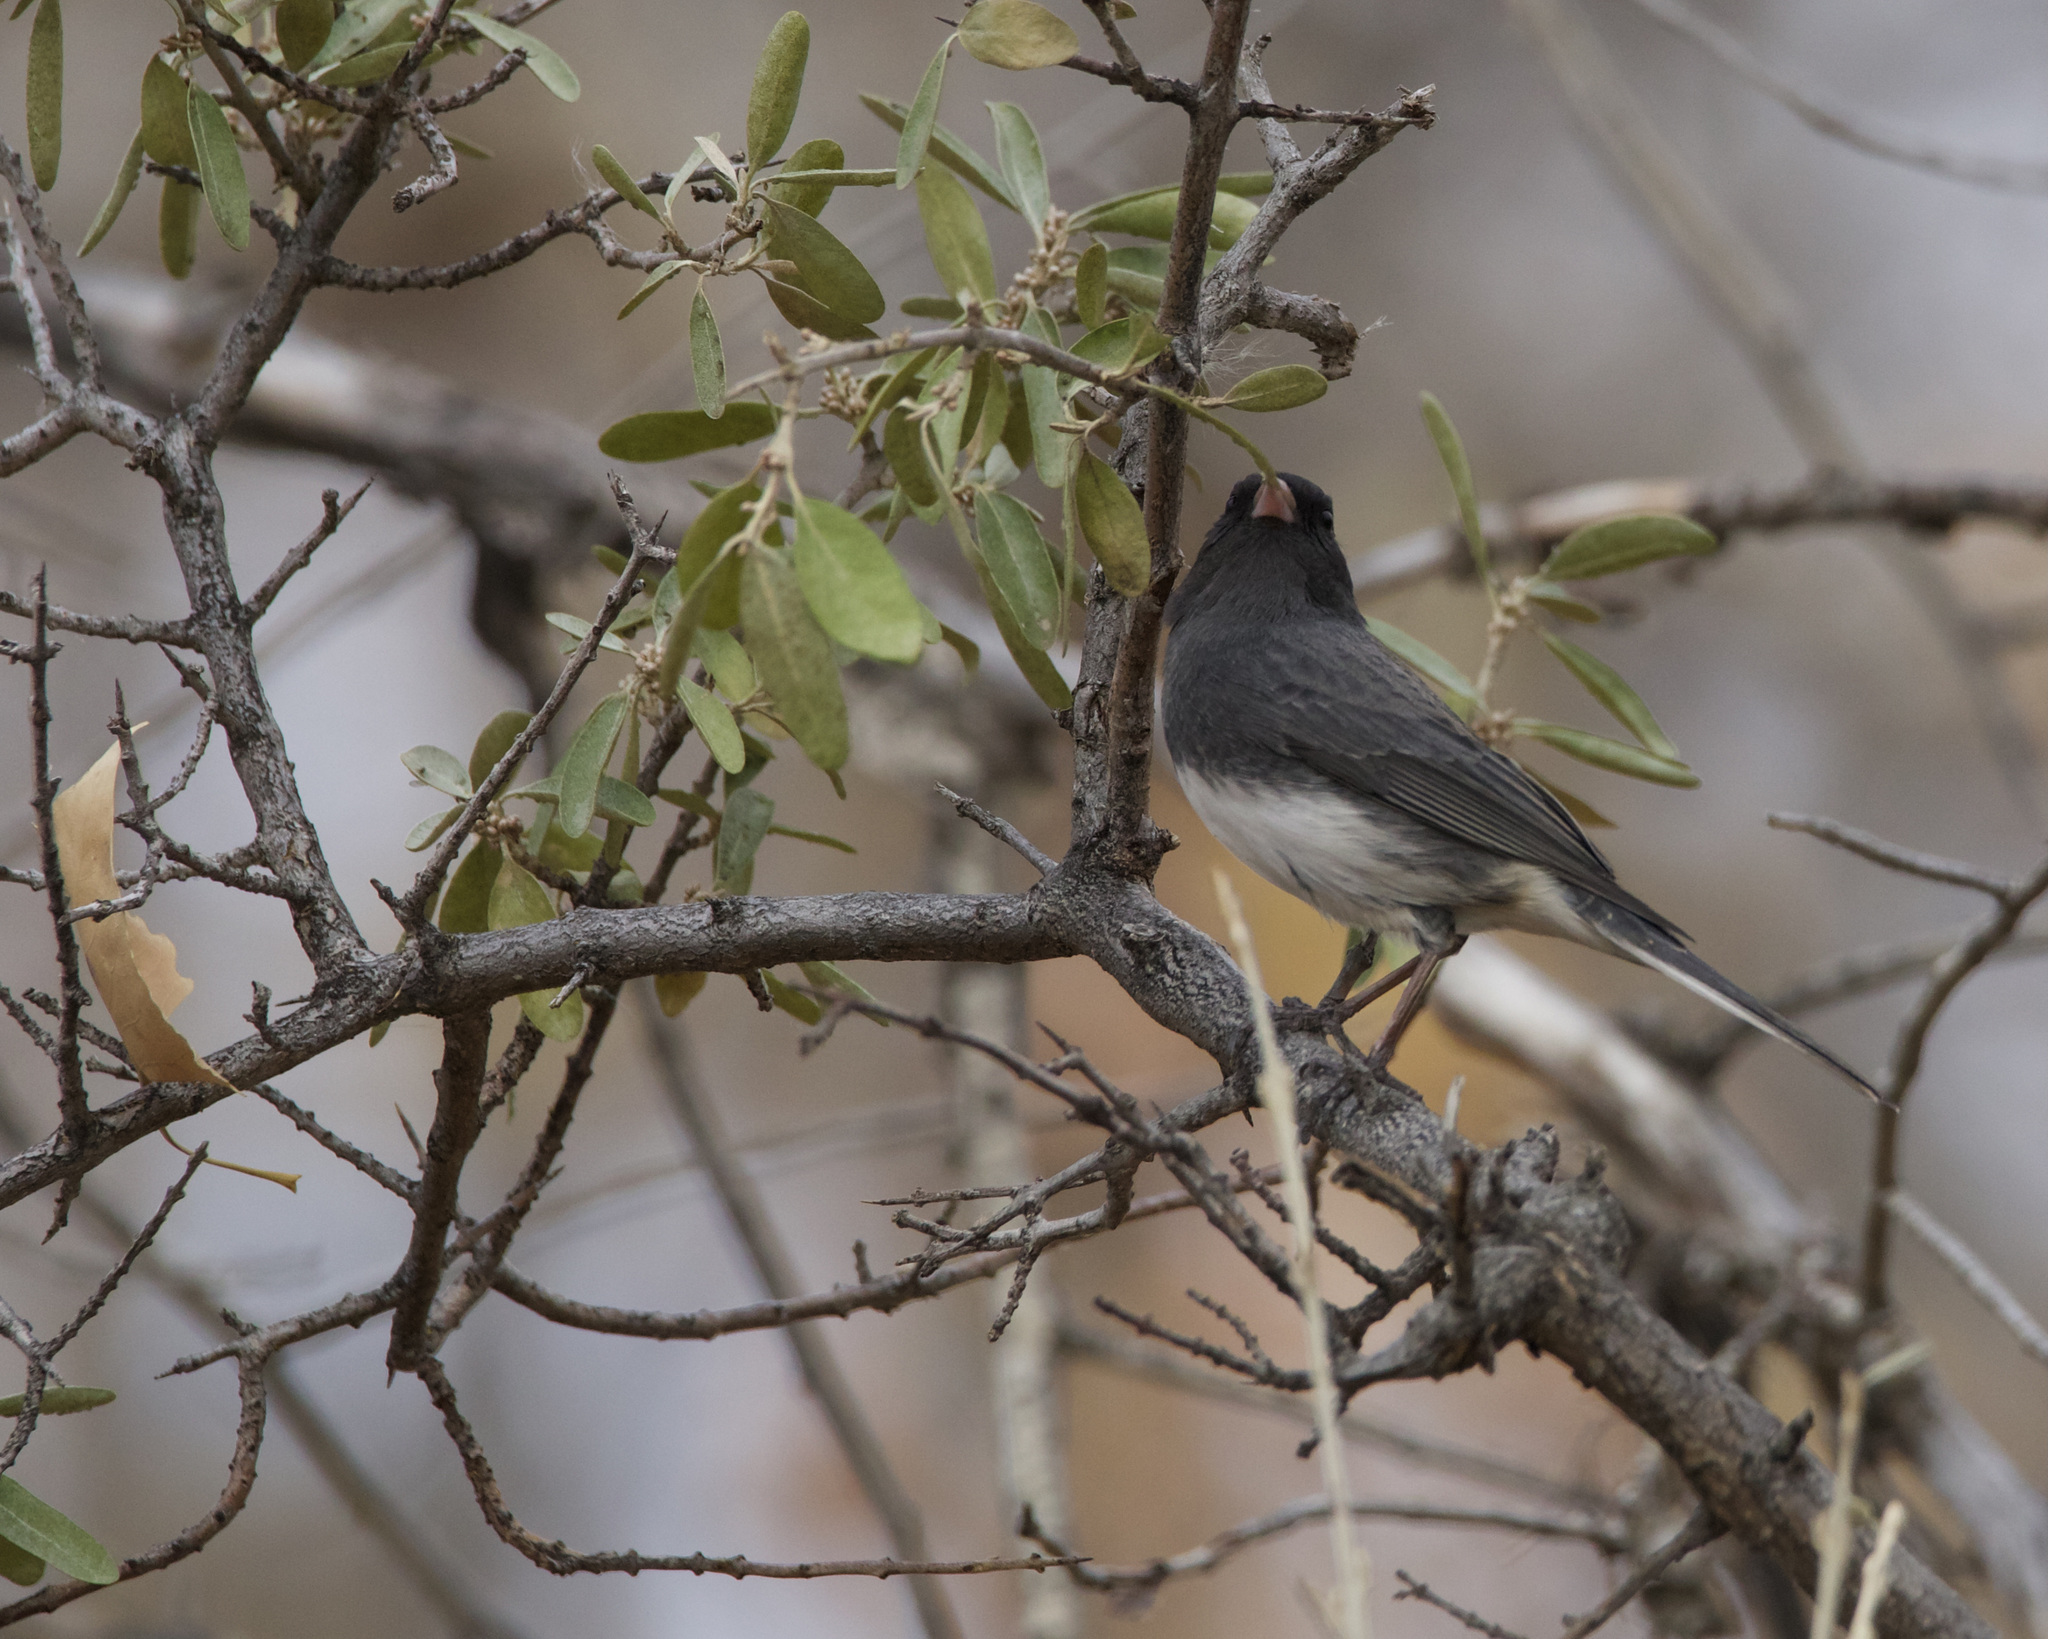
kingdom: Animalia
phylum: Chordata
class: Aves
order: Passeriformes
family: Passerellidae
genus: Junco
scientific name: Junco hyemalis
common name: Dark-eyed junco
